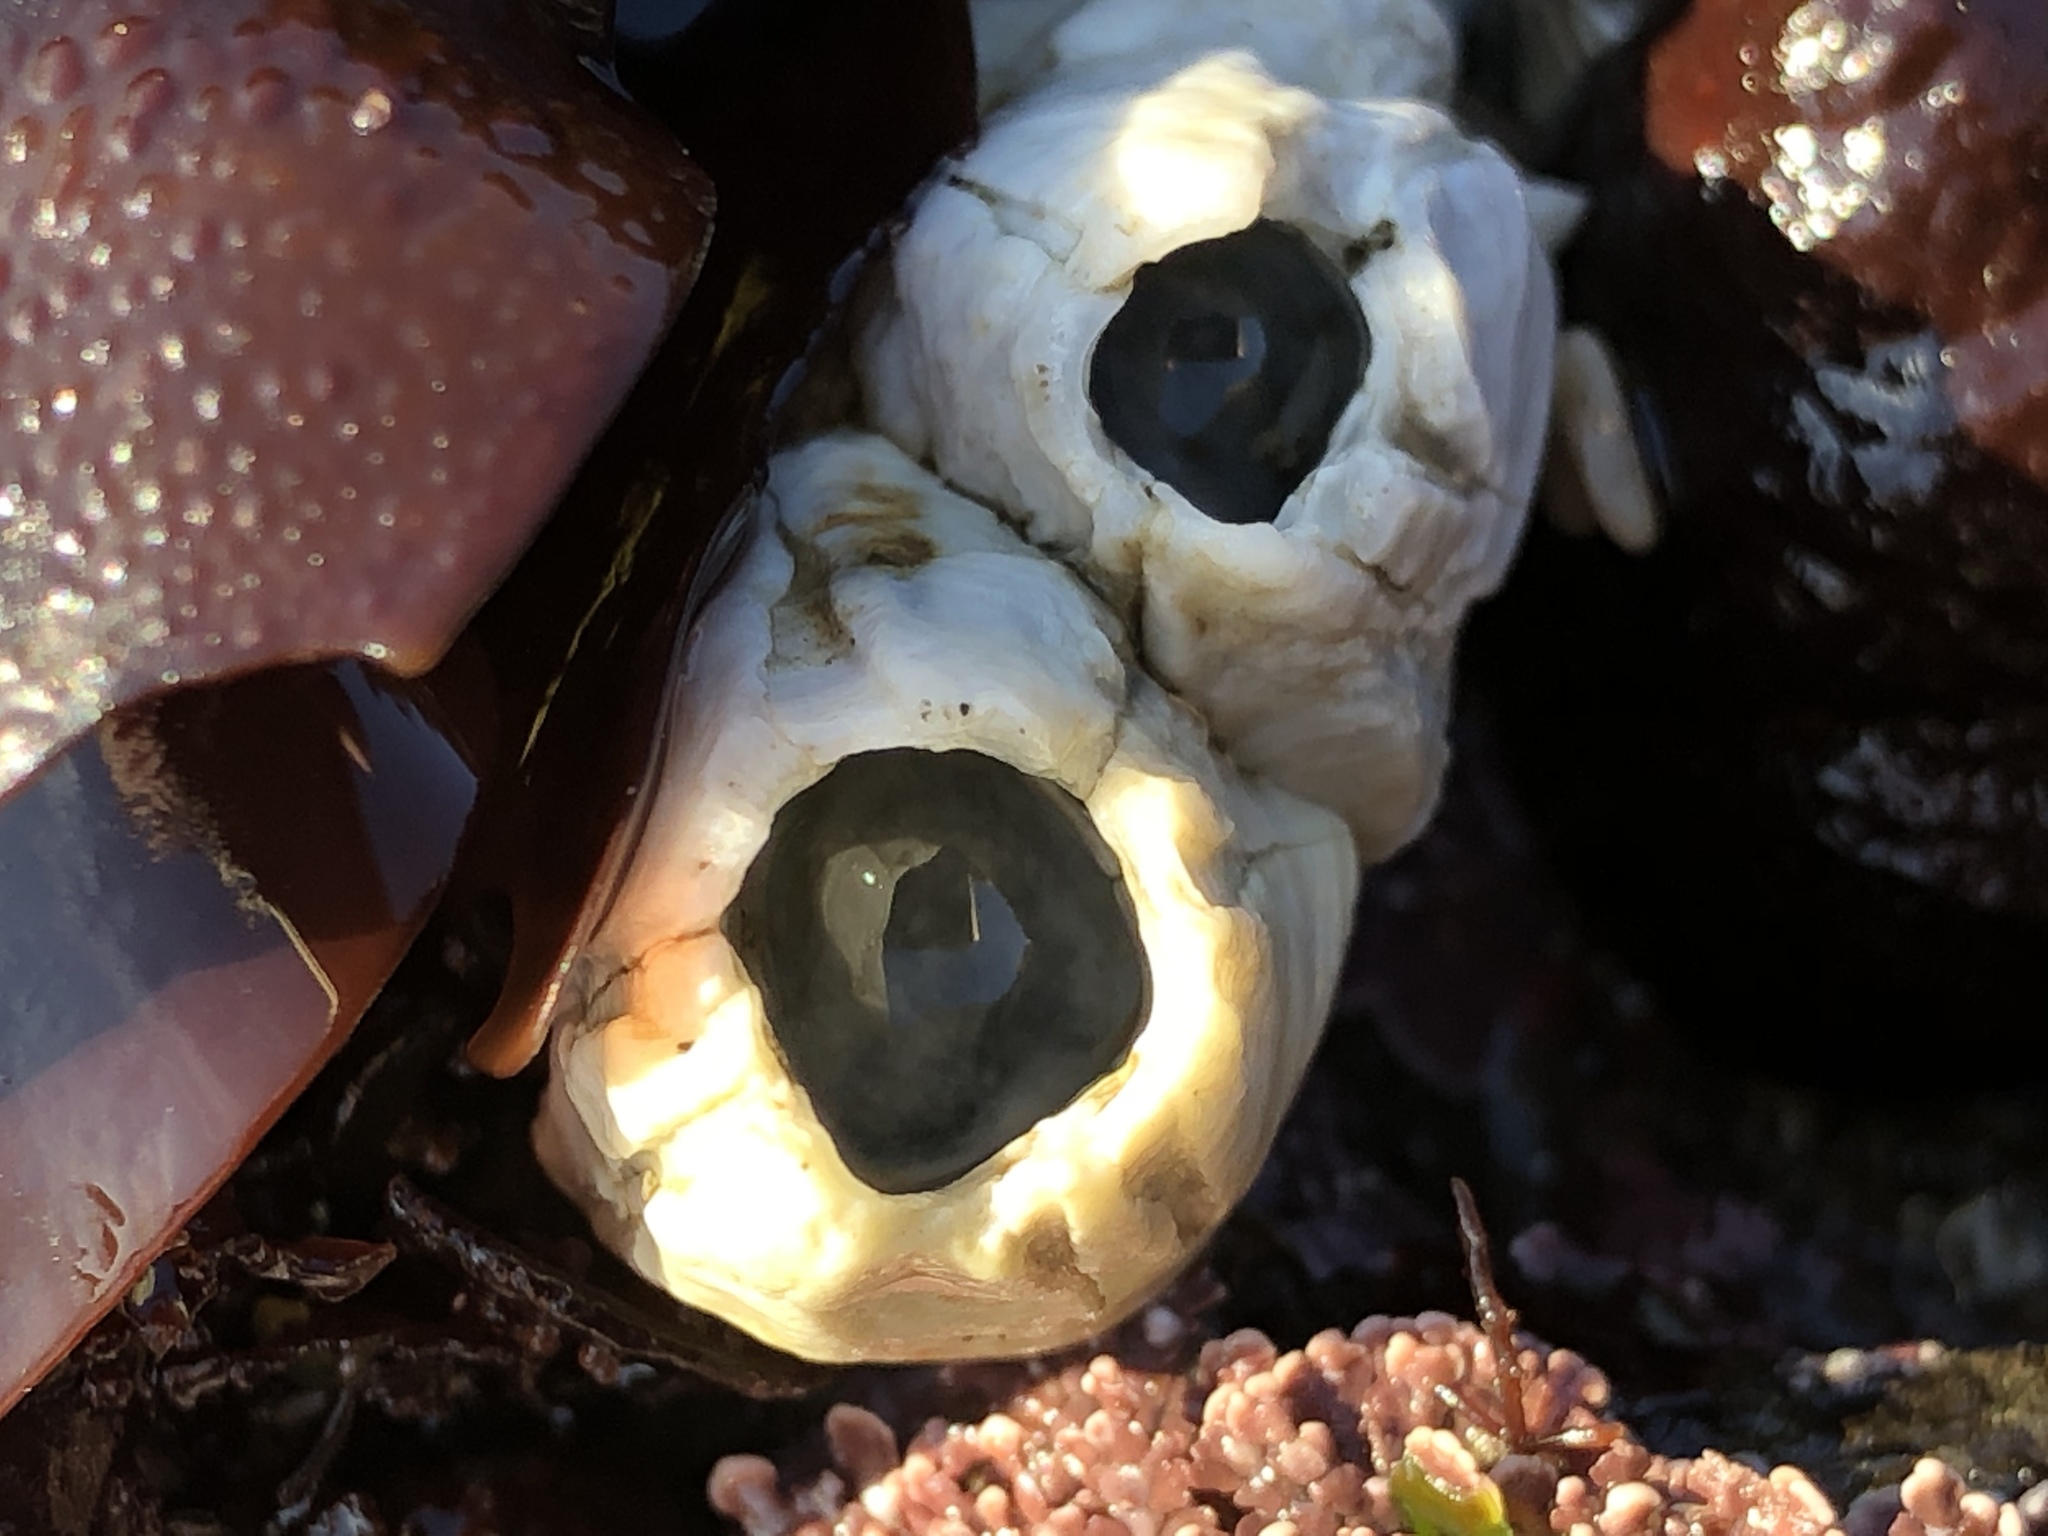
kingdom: Animalia
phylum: Arthropoda
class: Maxillopoda
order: Sessilia
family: Balanidae
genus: Menesiniella
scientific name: Menesiniella aquila
